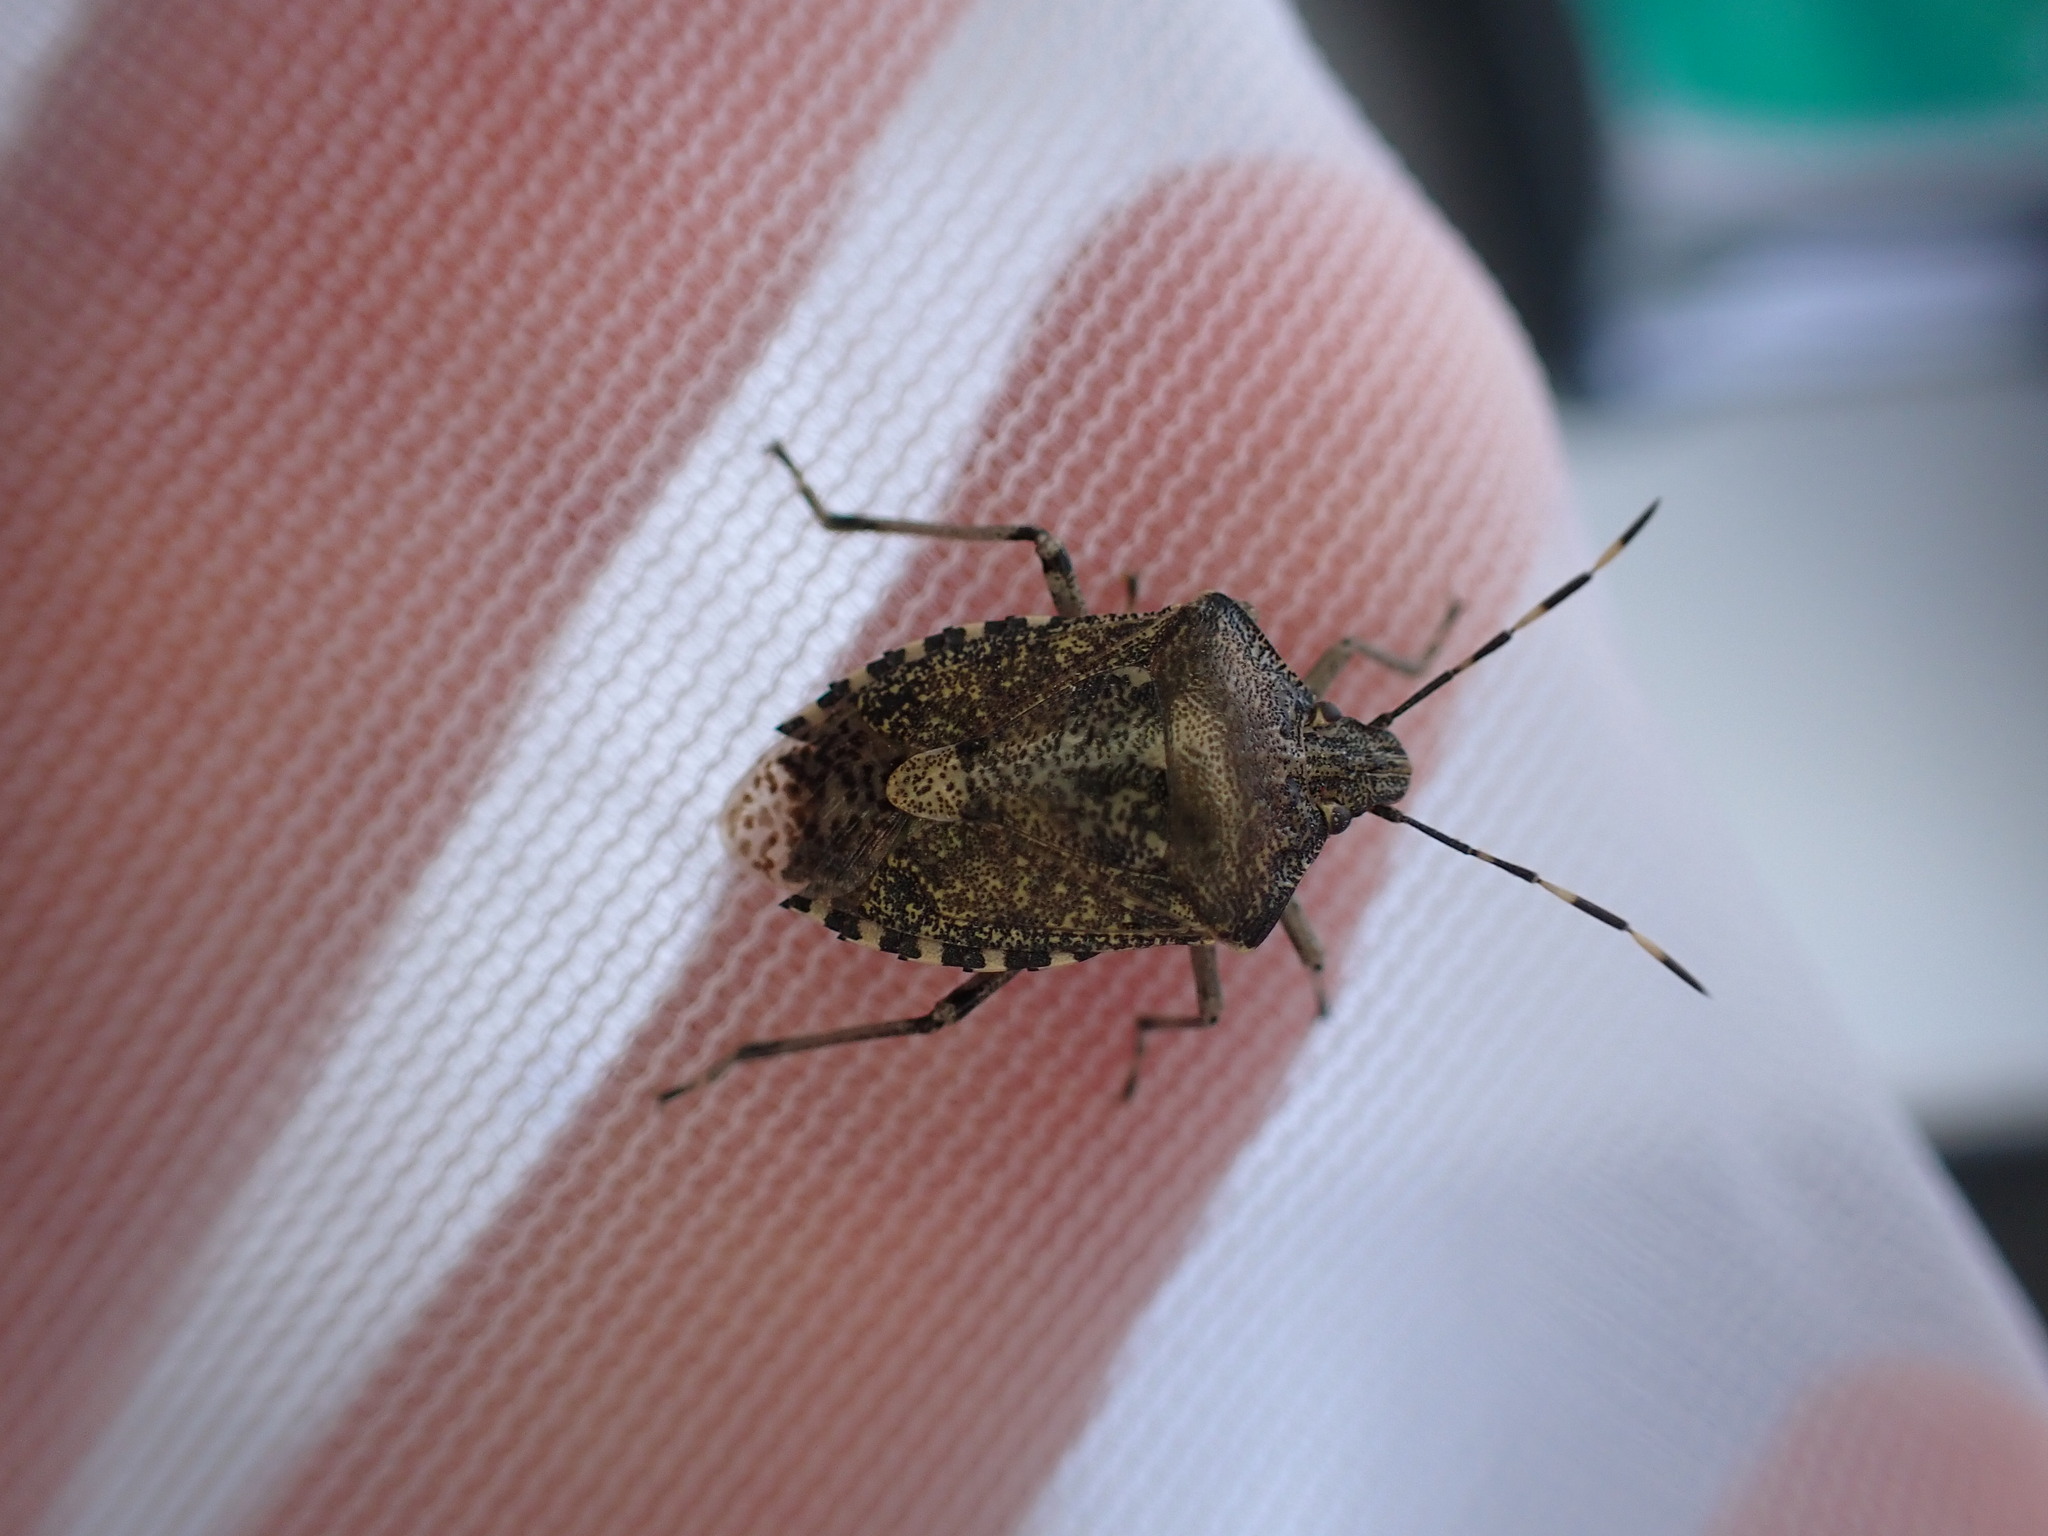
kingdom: Animalia
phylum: Arthropoda
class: Insecta
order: Hemiptera
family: Pentatomidae
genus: Rhaphigaster
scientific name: Rhaphigaster nebulosa
